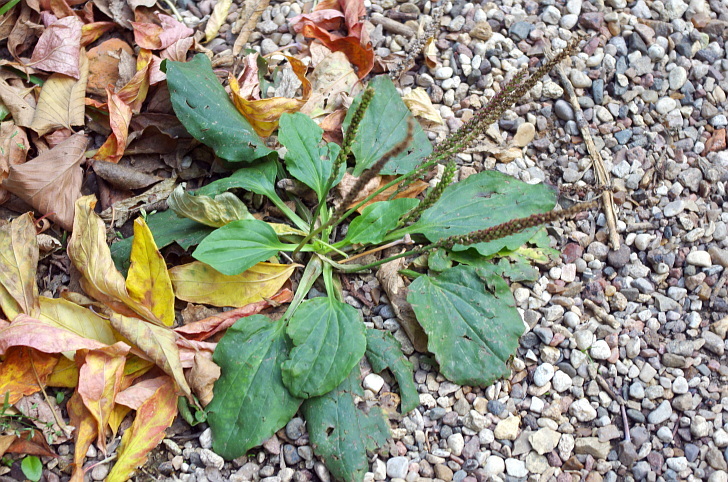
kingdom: Plantae
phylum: Tracheophyta
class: Magnoliopsida
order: Lamiales
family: Plantaginaceae
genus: Plantago
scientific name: Plantago major
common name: Common plantain
